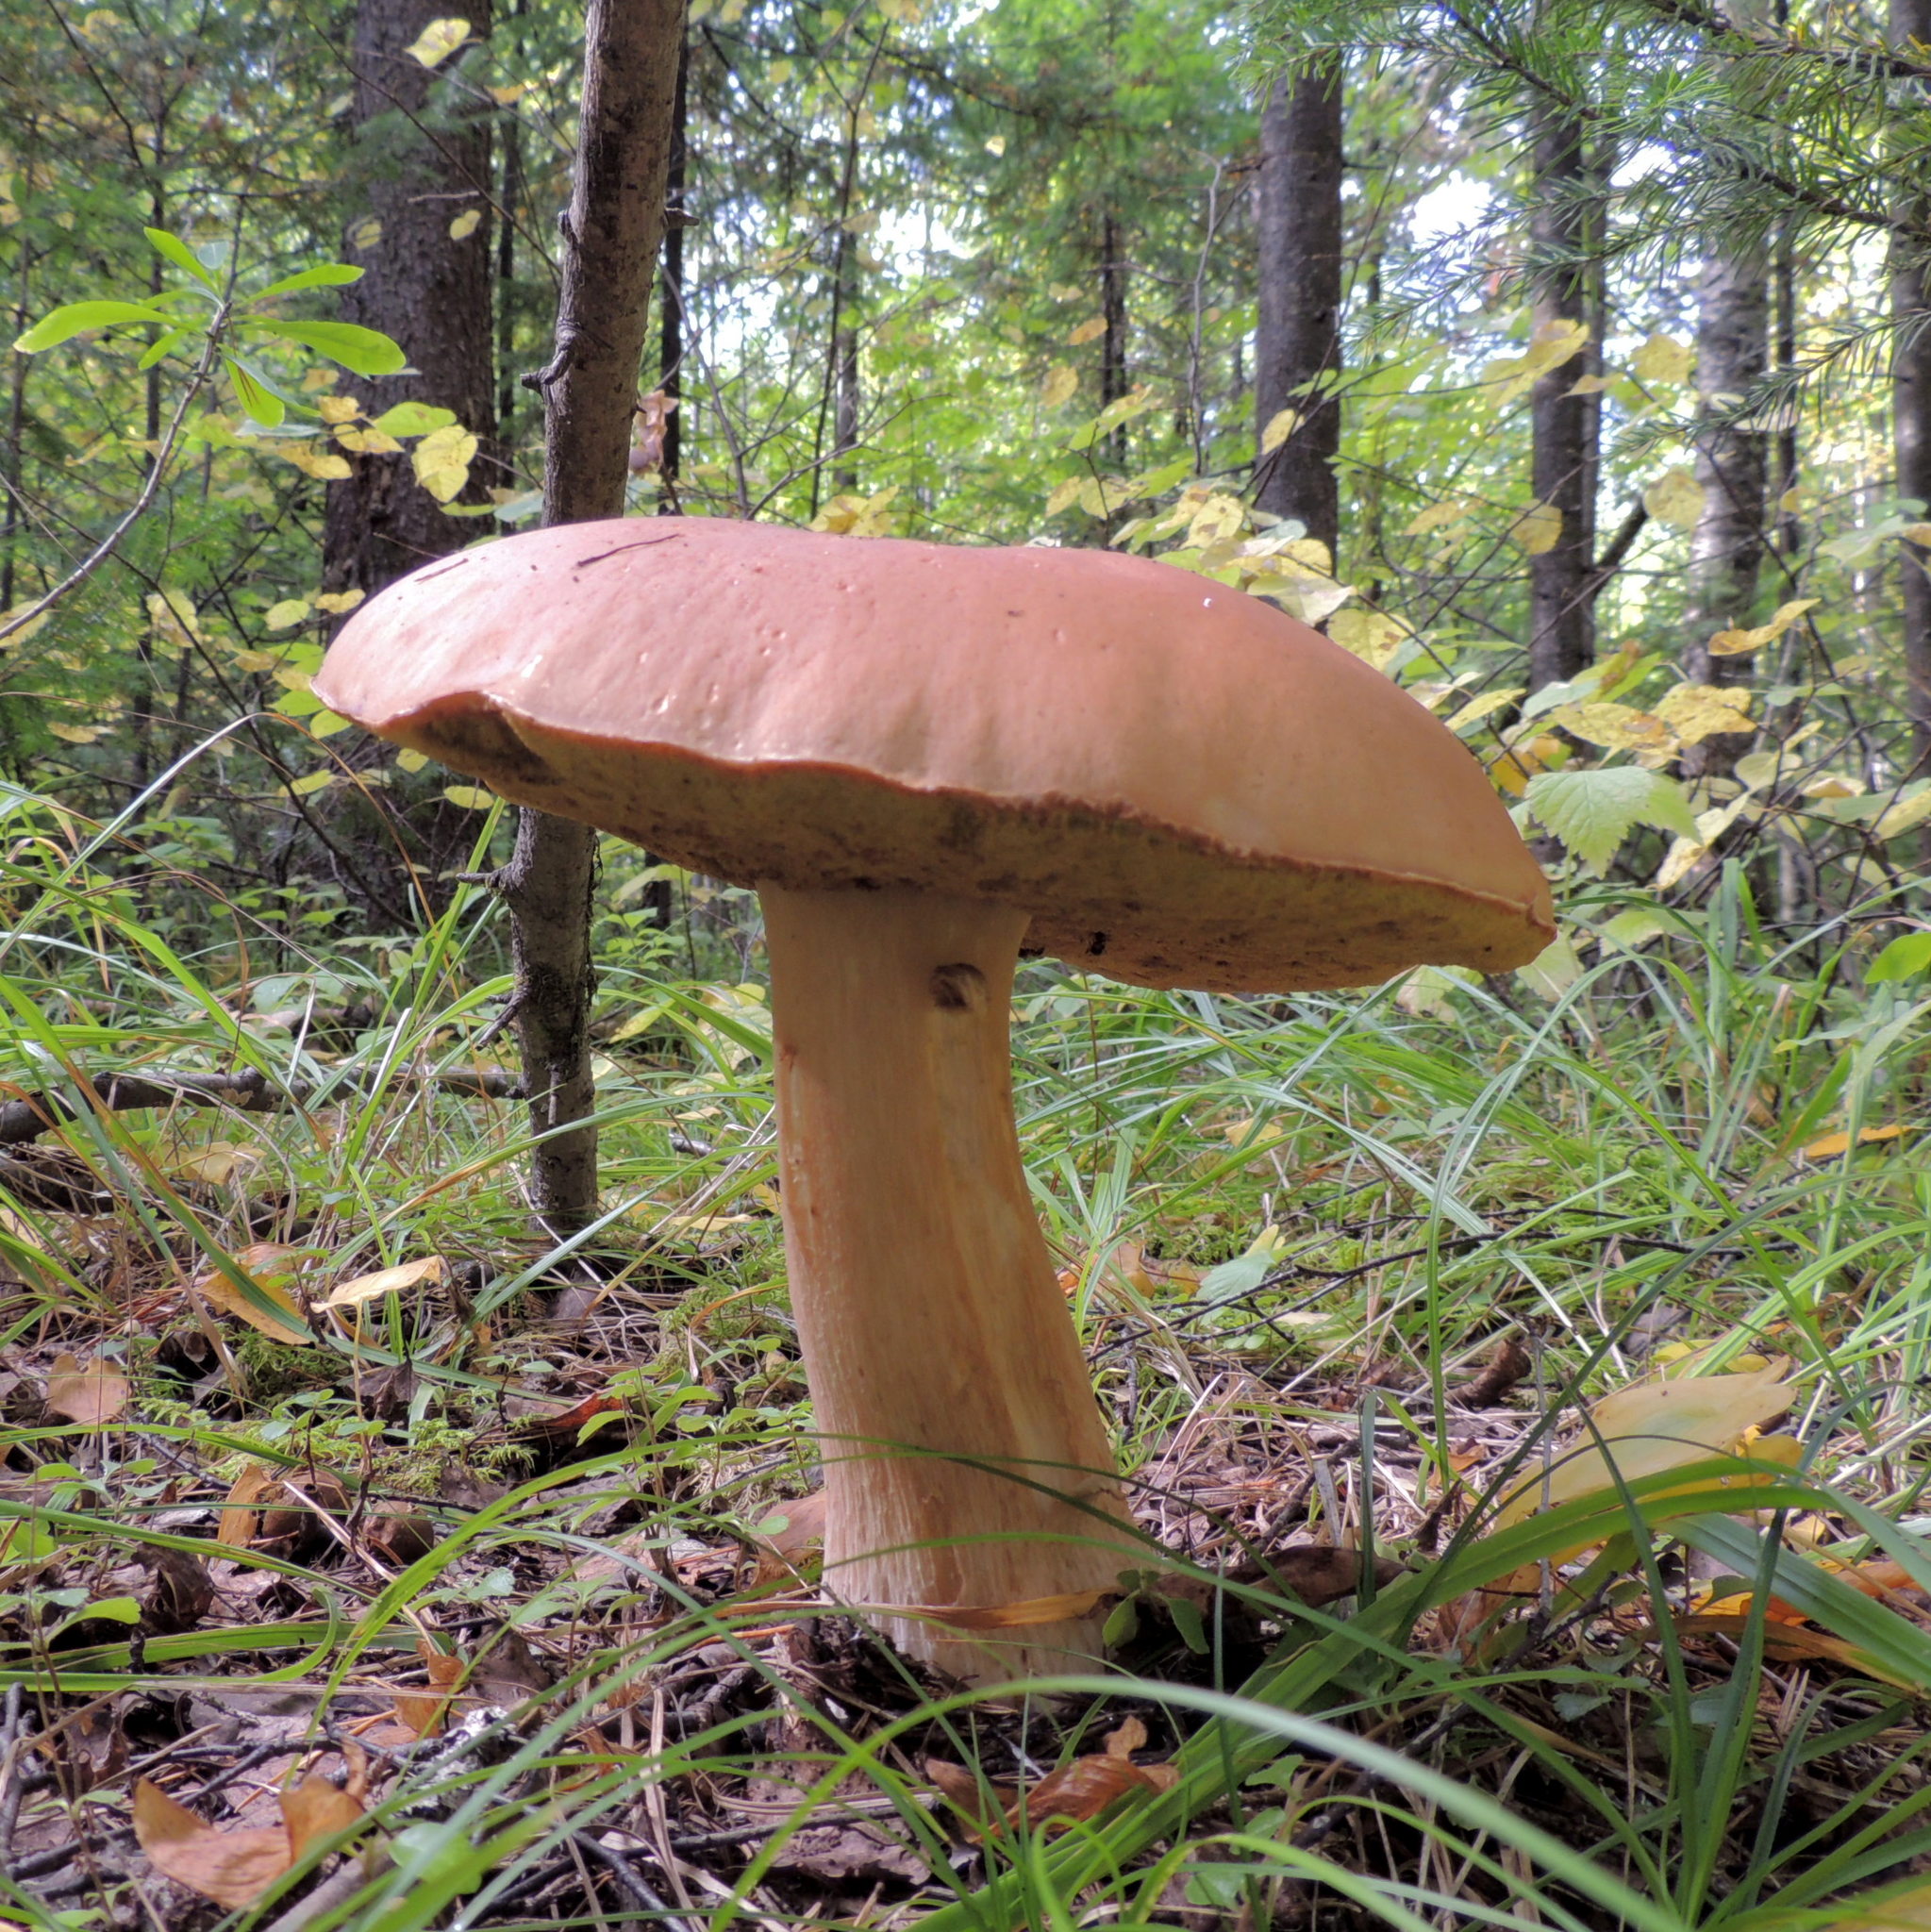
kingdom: Fungi
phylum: Basidiomycota
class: Agaricomycetes
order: Boletales
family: Boletaceae
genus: Boletus
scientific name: Boletus edulis
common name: Cep
